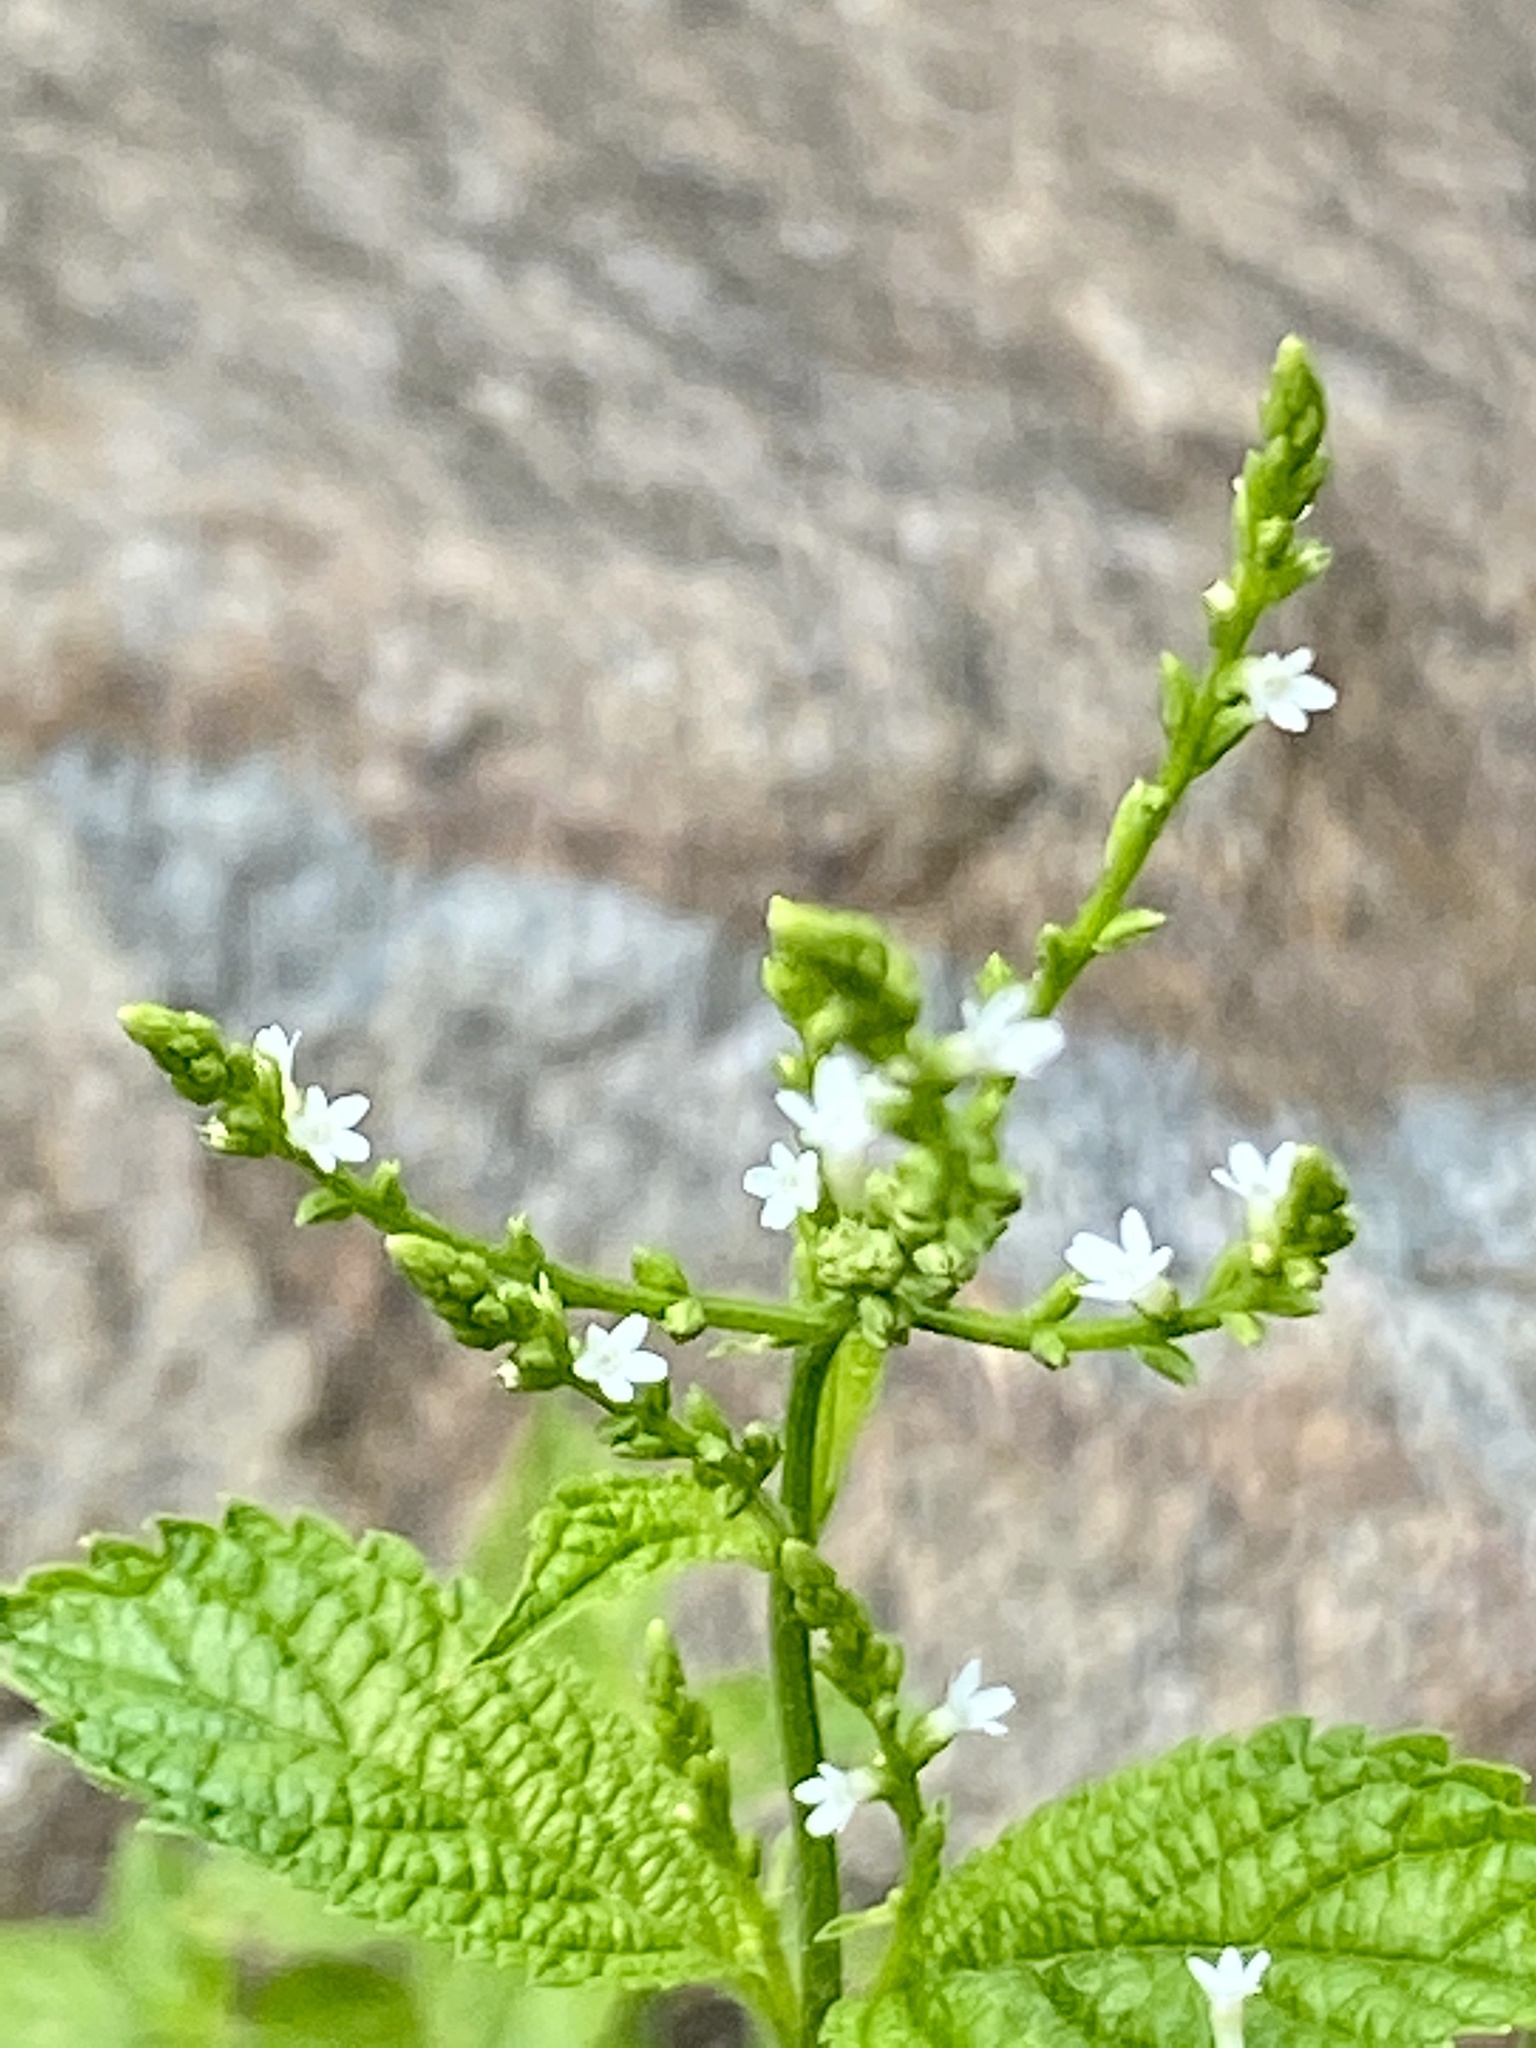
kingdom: Plantae
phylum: Tracheophyta
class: Magnoliopsida
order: Lamiales
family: Verbenaceae
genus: Verbena
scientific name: Verbena urticifolia
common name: Nettle-leaved vervain
